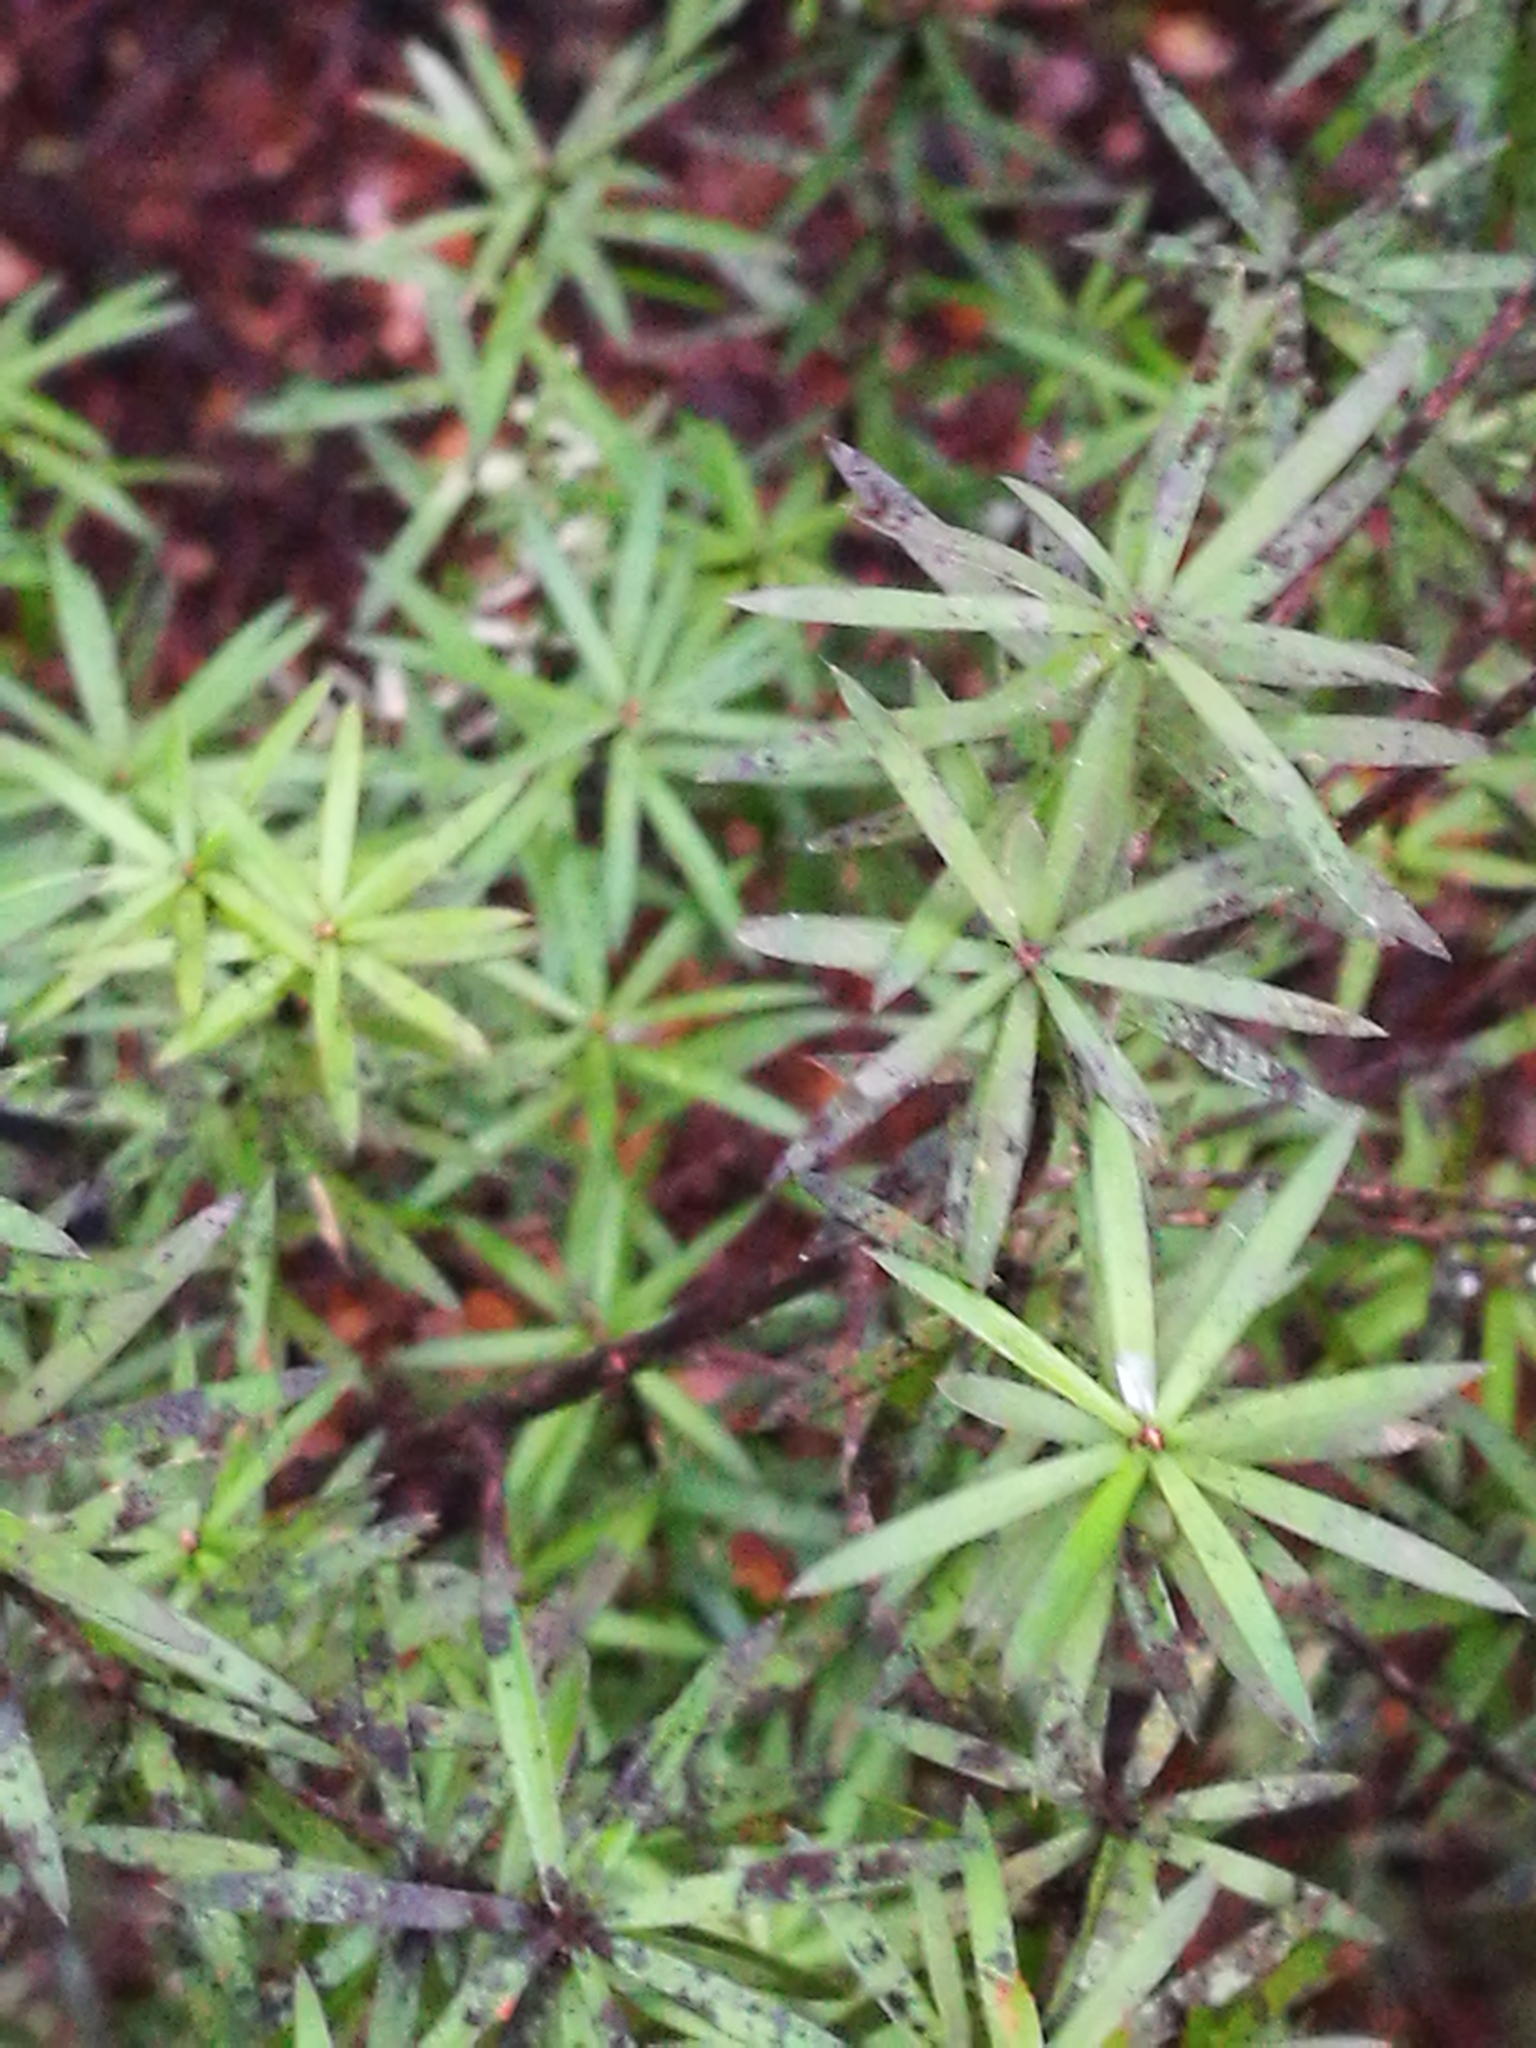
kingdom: Plantae
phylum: Tracheophyta
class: Magnoliopsida
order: Ericales
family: Ericaceae
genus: Leucopogon
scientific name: Leucopogon fasciculatus
